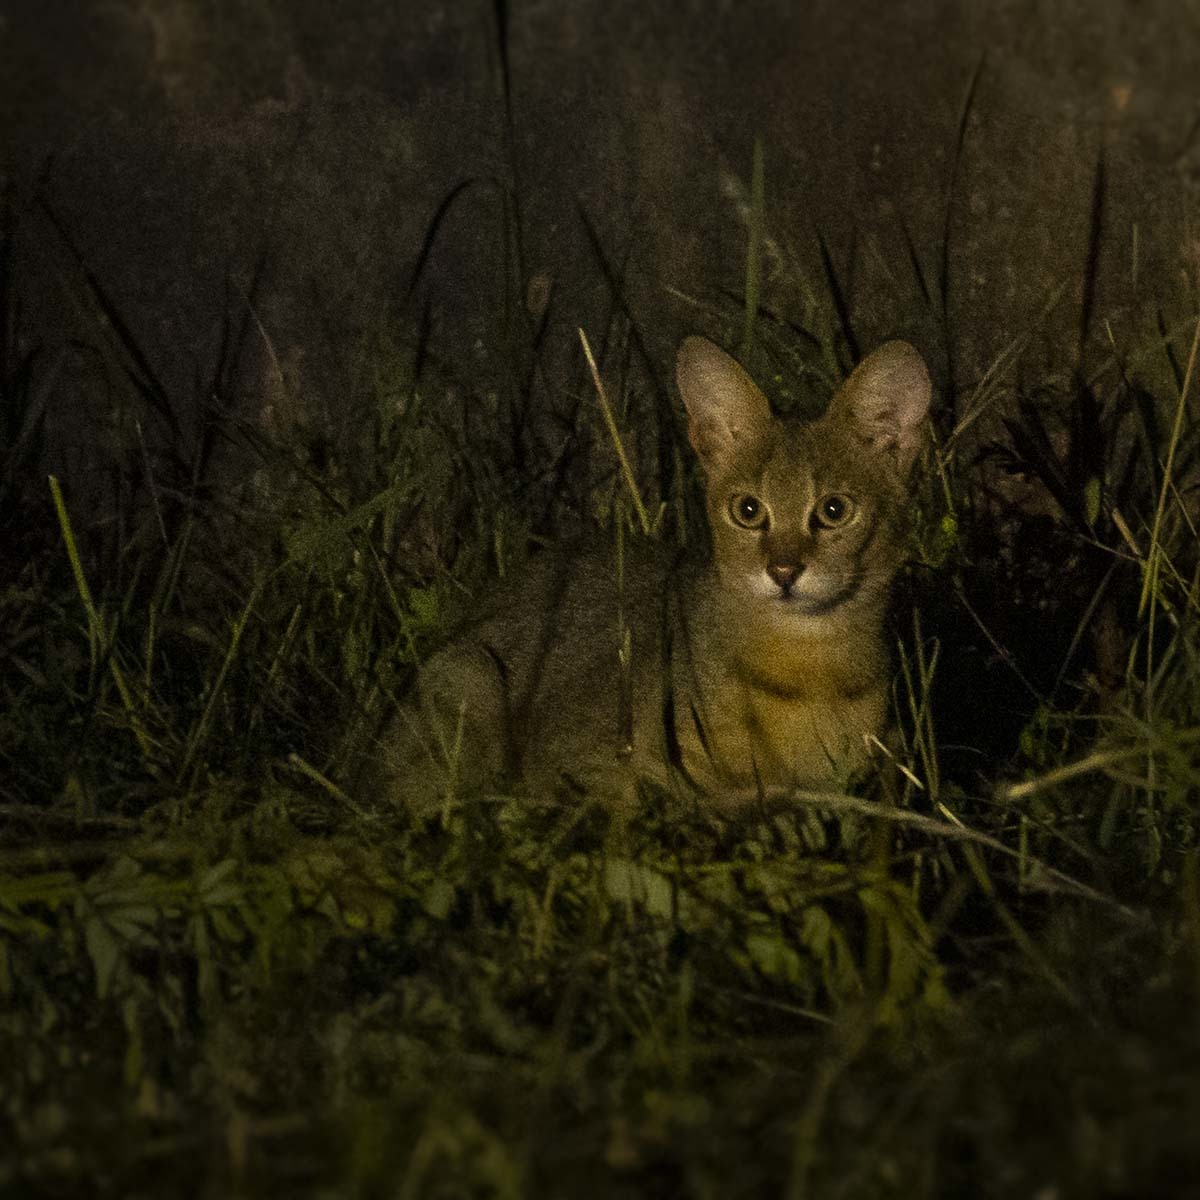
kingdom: Animalia
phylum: Chordata
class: Mammalia
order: Carnivora
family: Felidae
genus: Felis
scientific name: Felis chaus
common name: Jungle cat
